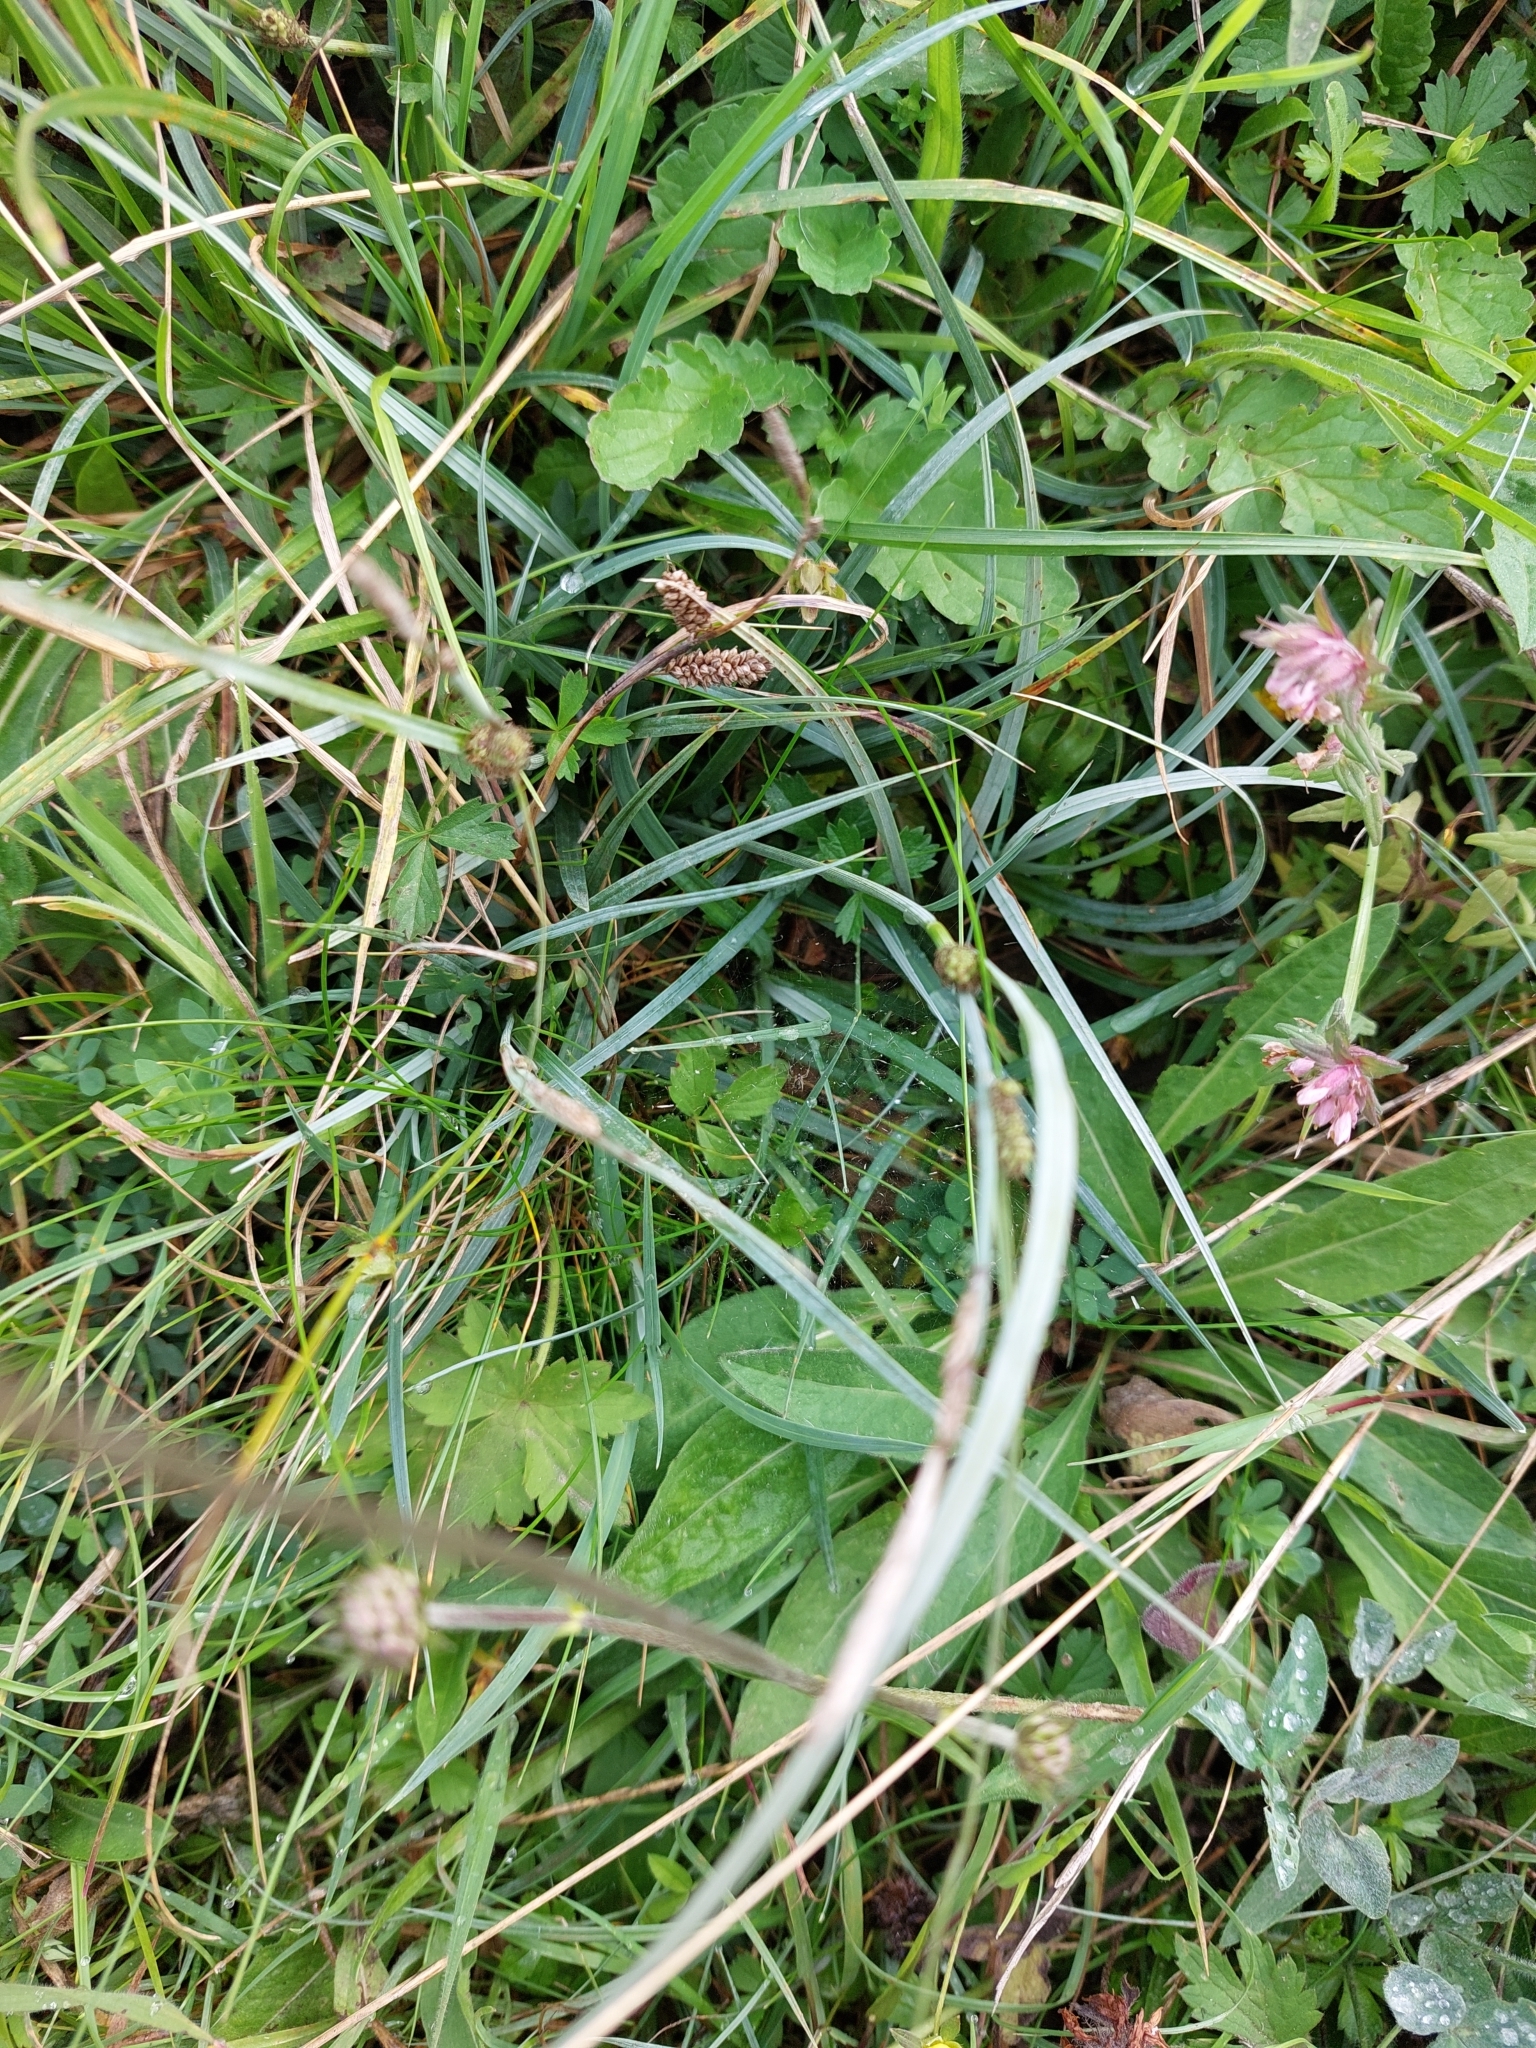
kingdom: Plantae
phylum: Tracheophyta
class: Liliopsida
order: Poales
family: Cyperaceae
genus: Carex
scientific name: Carex flacca
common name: Glaucous sedge
